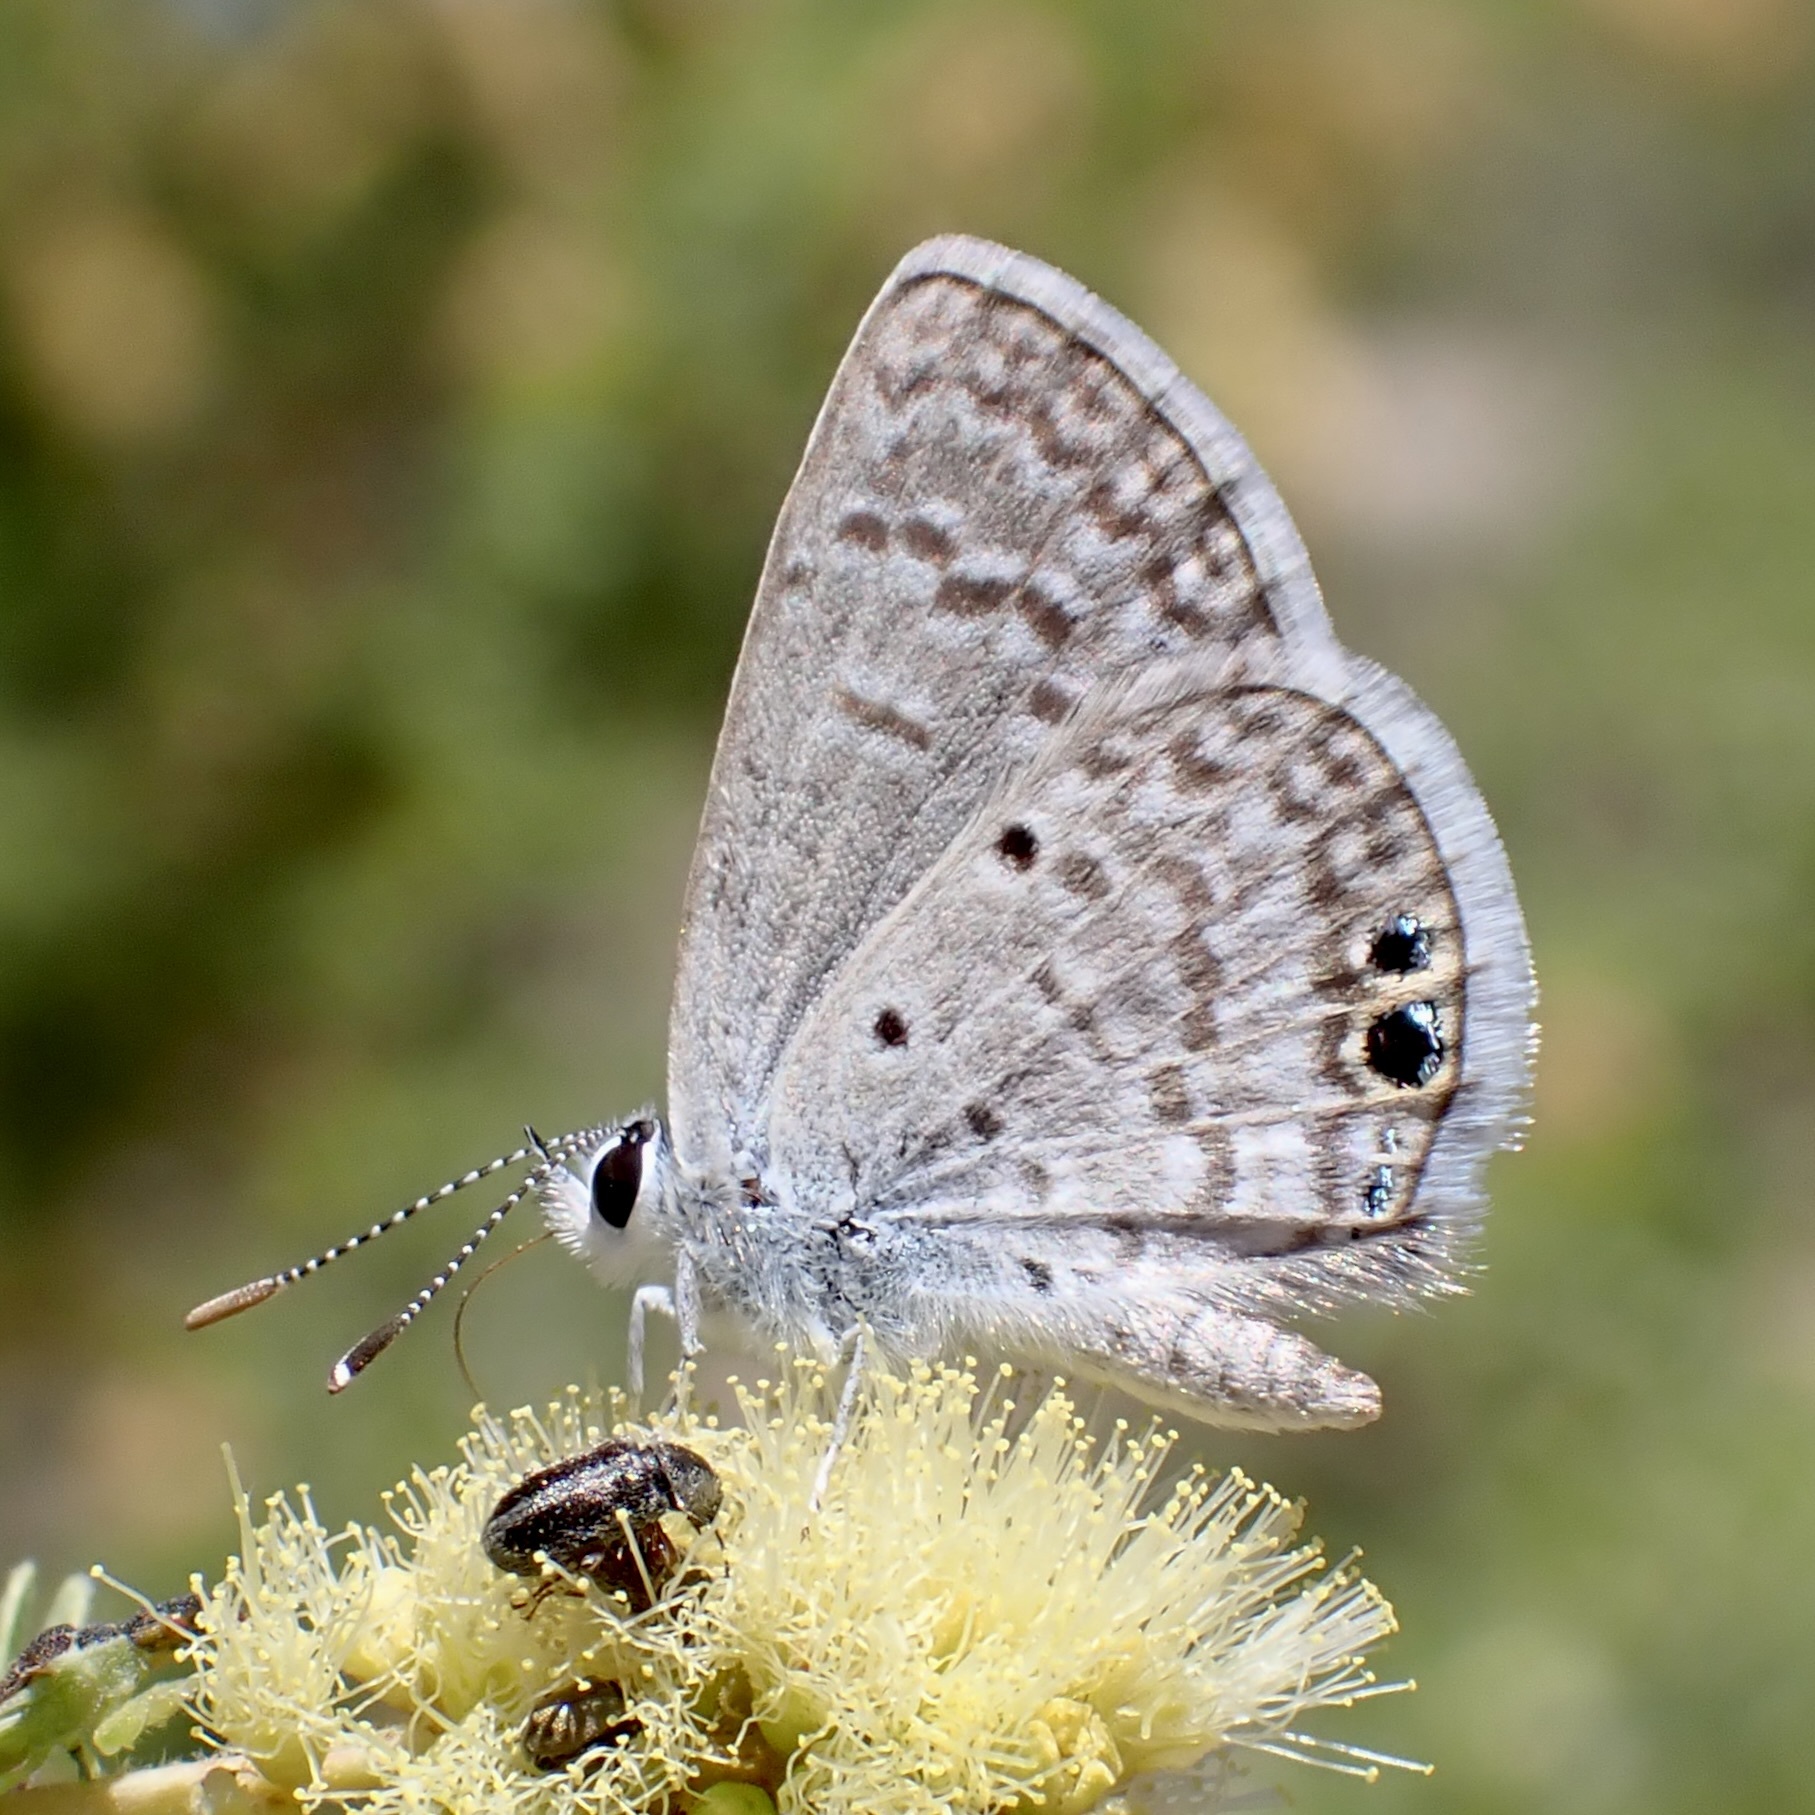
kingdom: Animalia
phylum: Arthropoda
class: Insecta
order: Lepidoptera
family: Lycaenidae
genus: Hemiargus
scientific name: Hemiargus ceraunus
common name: Ceraunus blue
